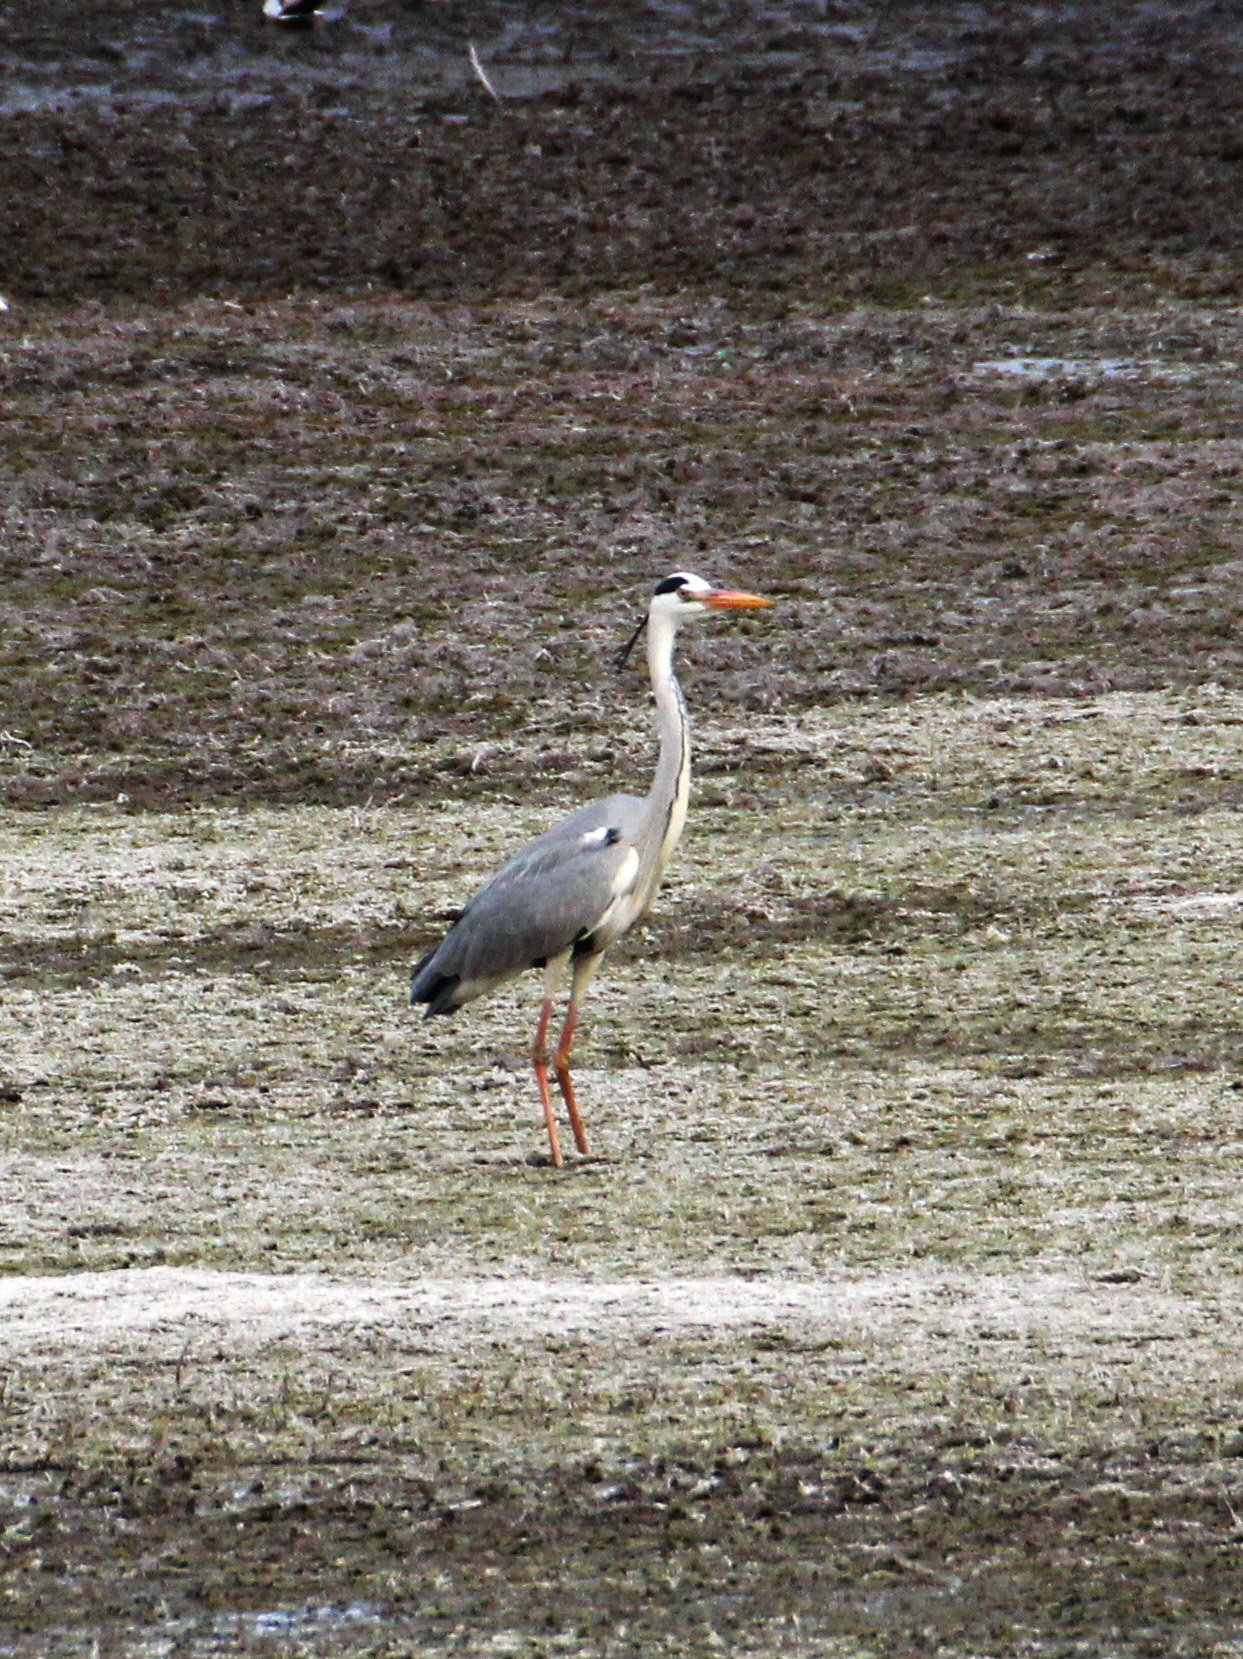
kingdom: Animalia
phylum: Chordata
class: Aves
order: Pelecaniformes
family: Ardeidae
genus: Ardea
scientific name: Ardea cinerea
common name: Grey heron
